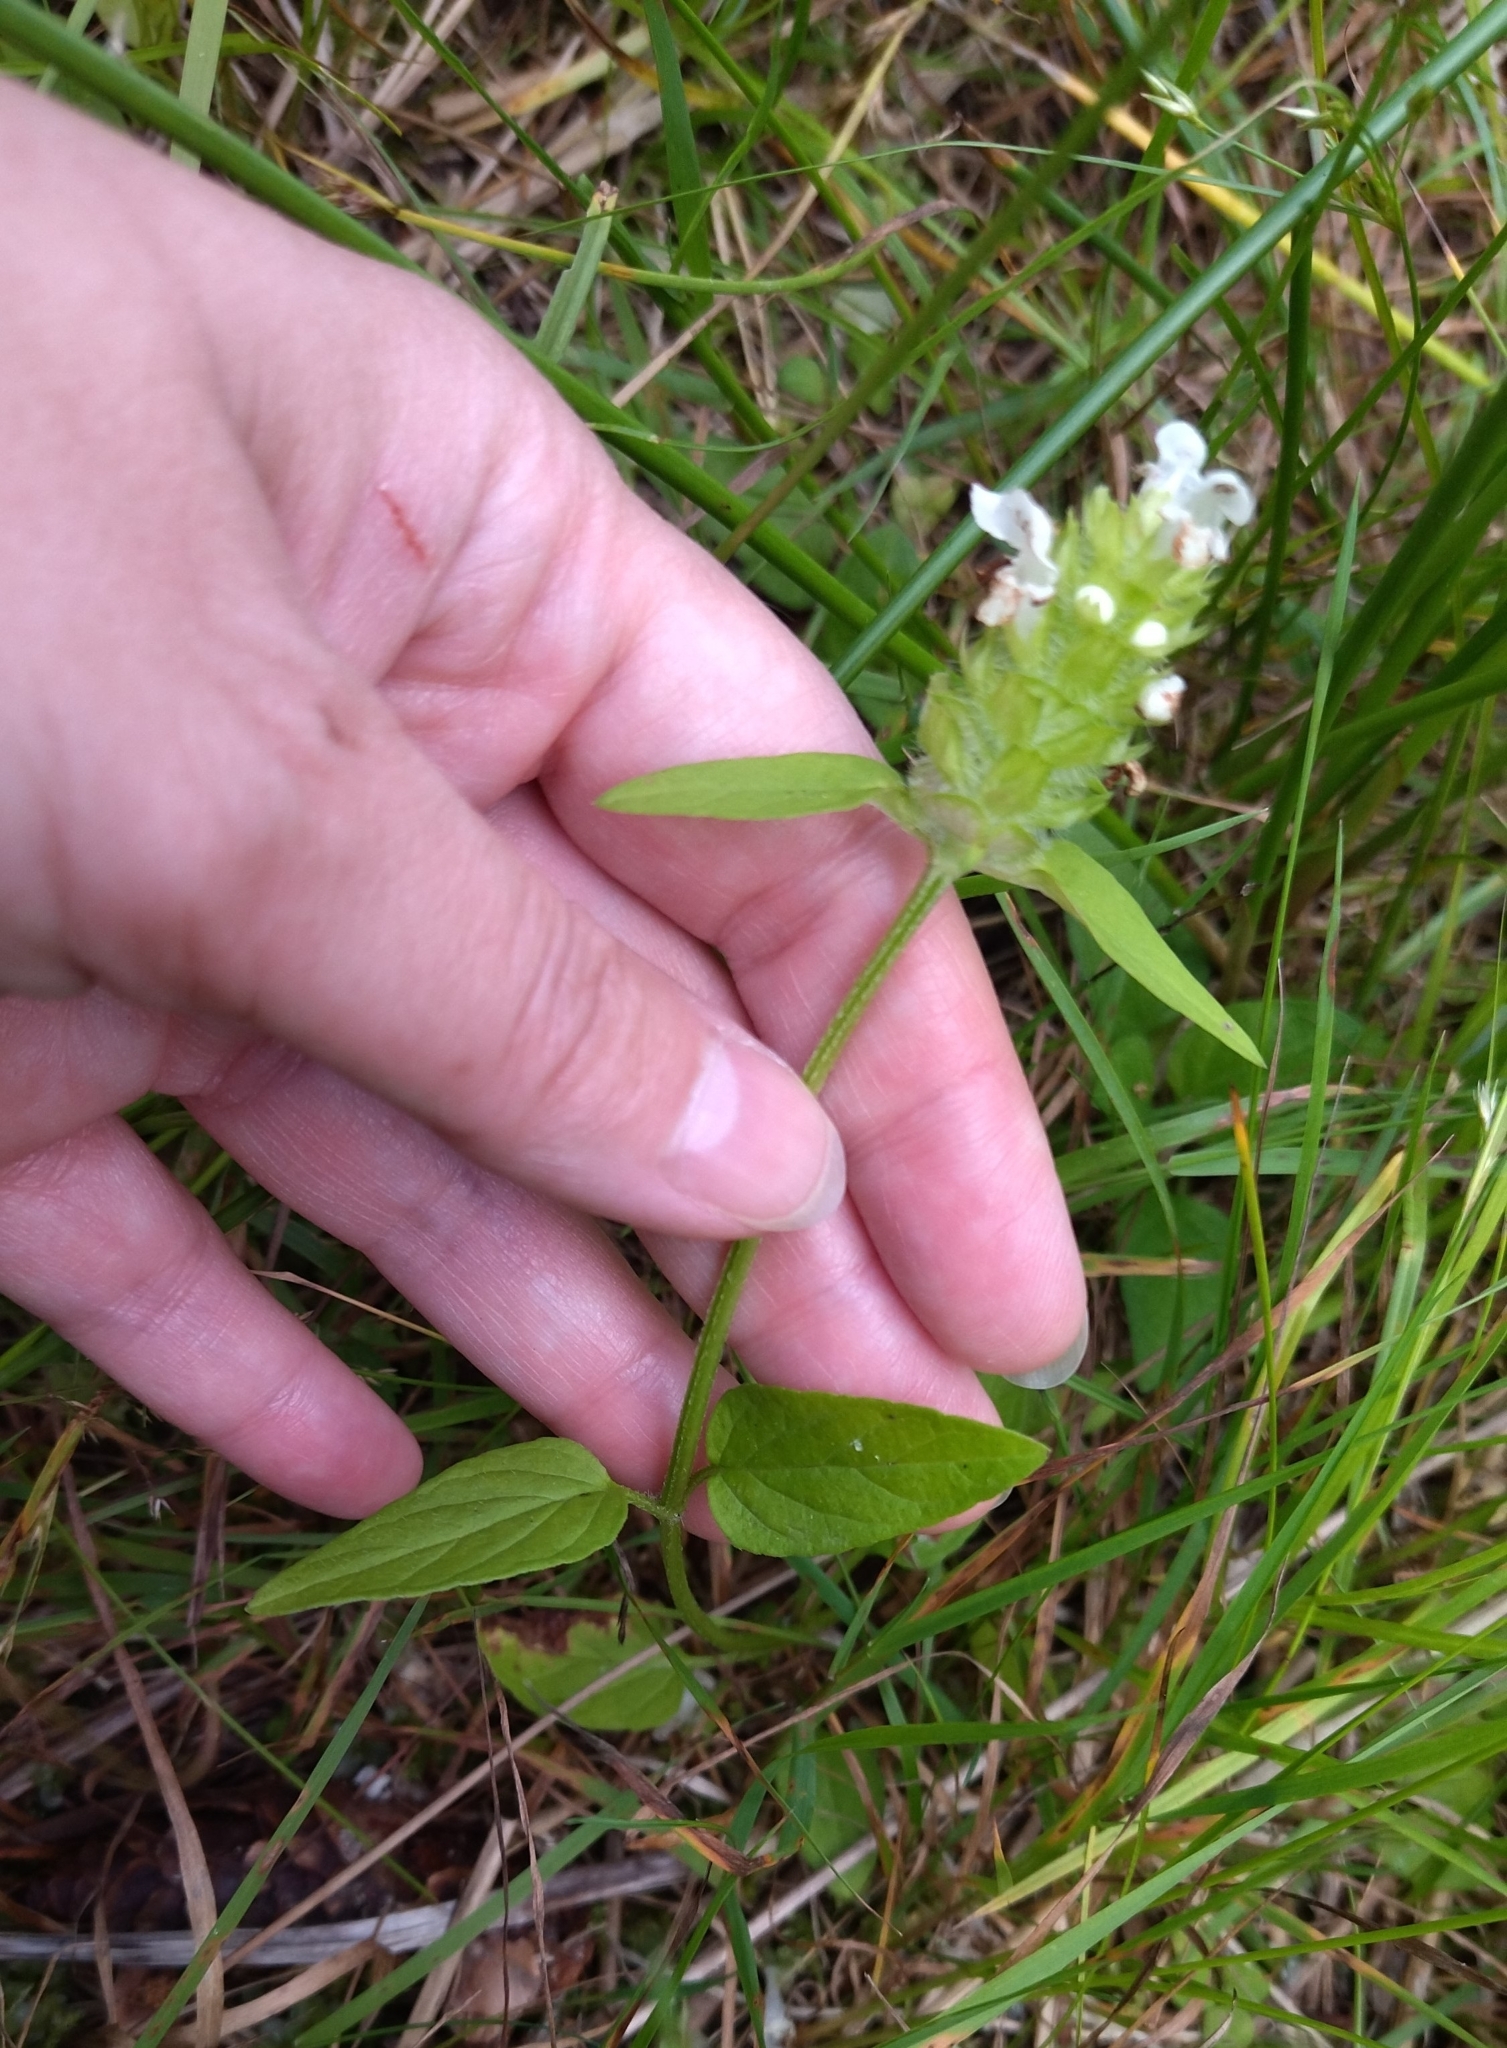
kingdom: Plantae
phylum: Tracheophyta
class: Magnoliopsida
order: Lamiales
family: Lamiaceae
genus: Prunella
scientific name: Prunella vulgaris
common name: Heal-all
